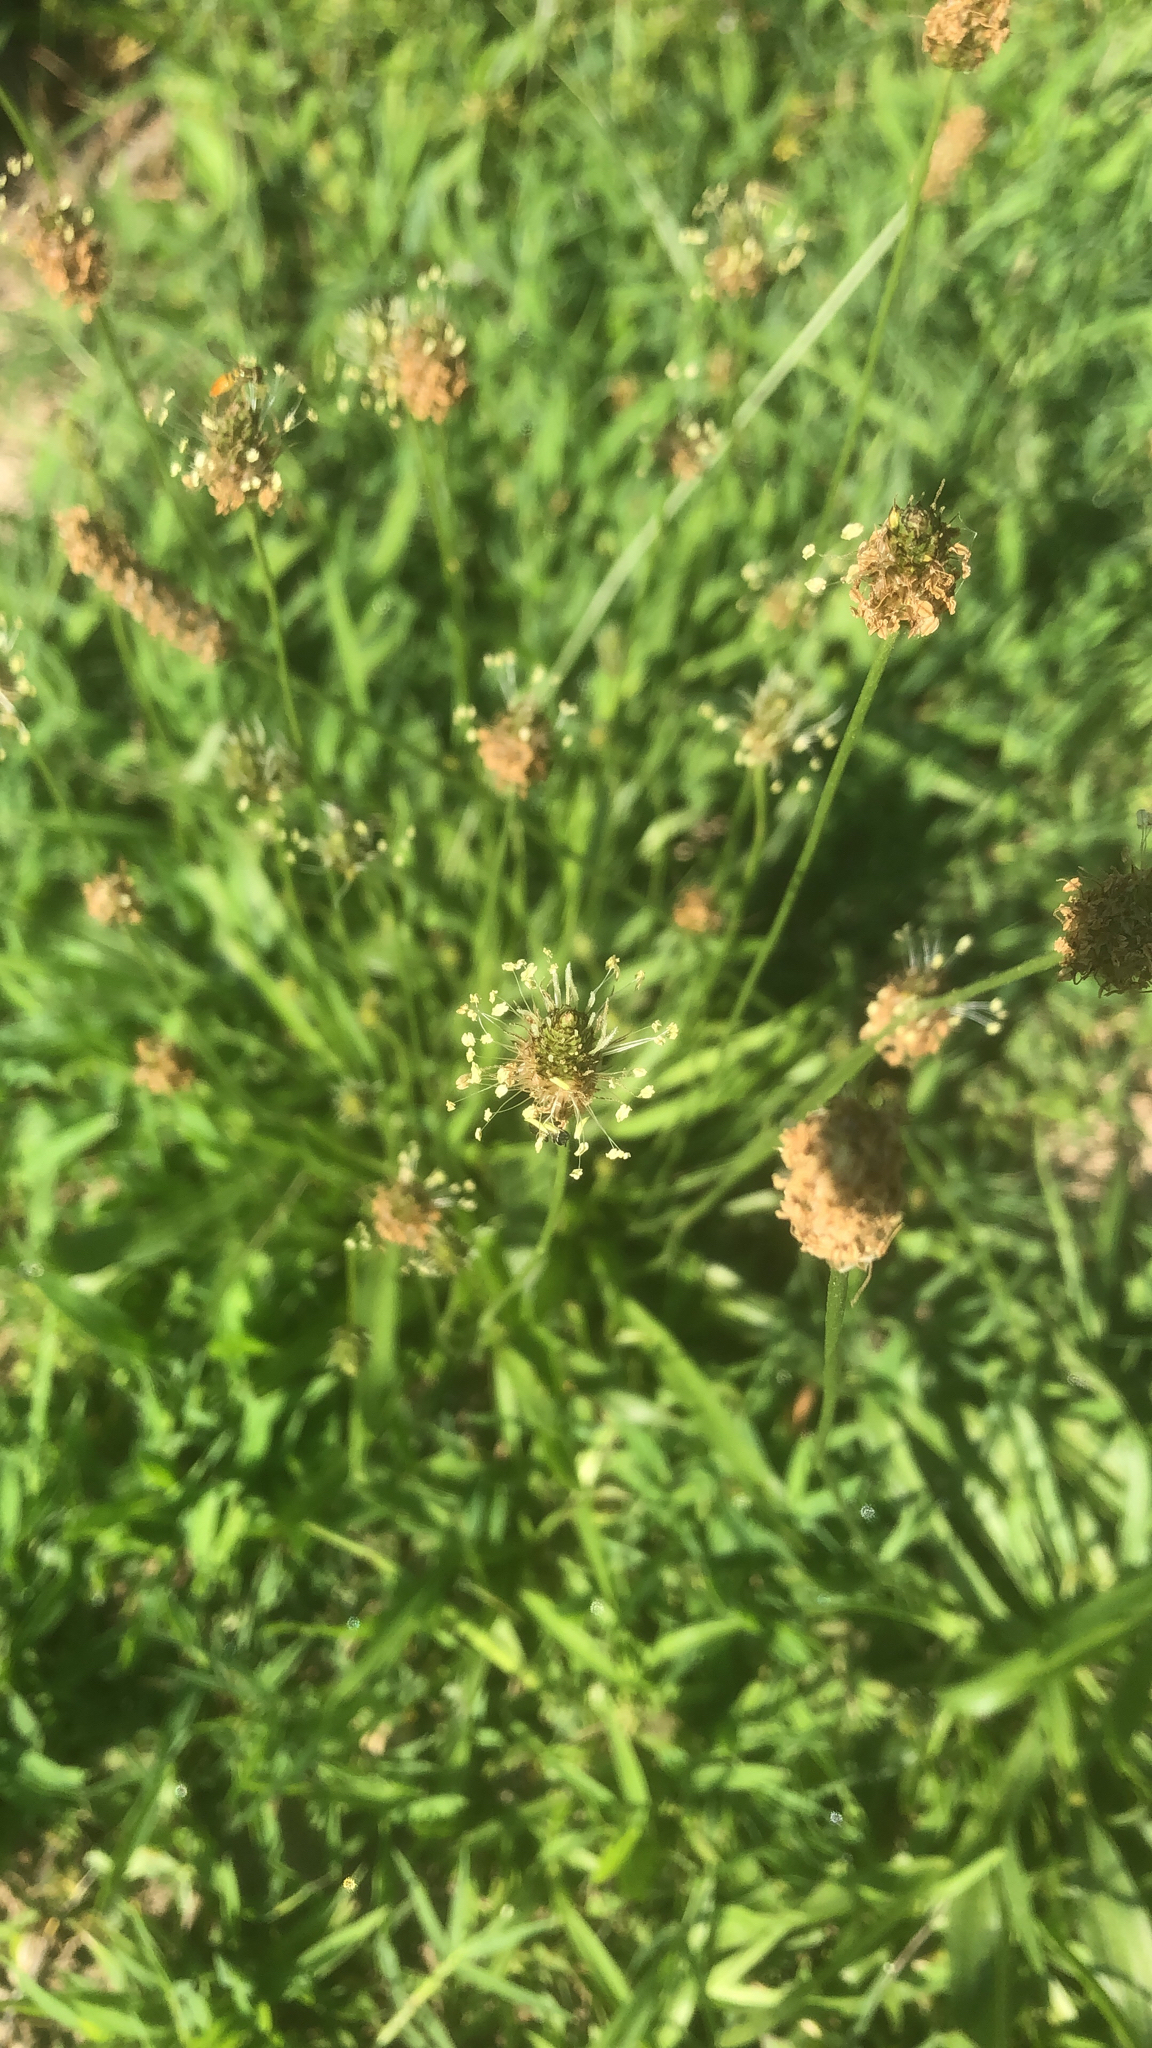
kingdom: Plantae
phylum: Tracheophyta
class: Magnoliopsida
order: Lamiales
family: Plantaginaceae
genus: Plantago
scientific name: Plantago lanceolata
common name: Ribwort plantain
